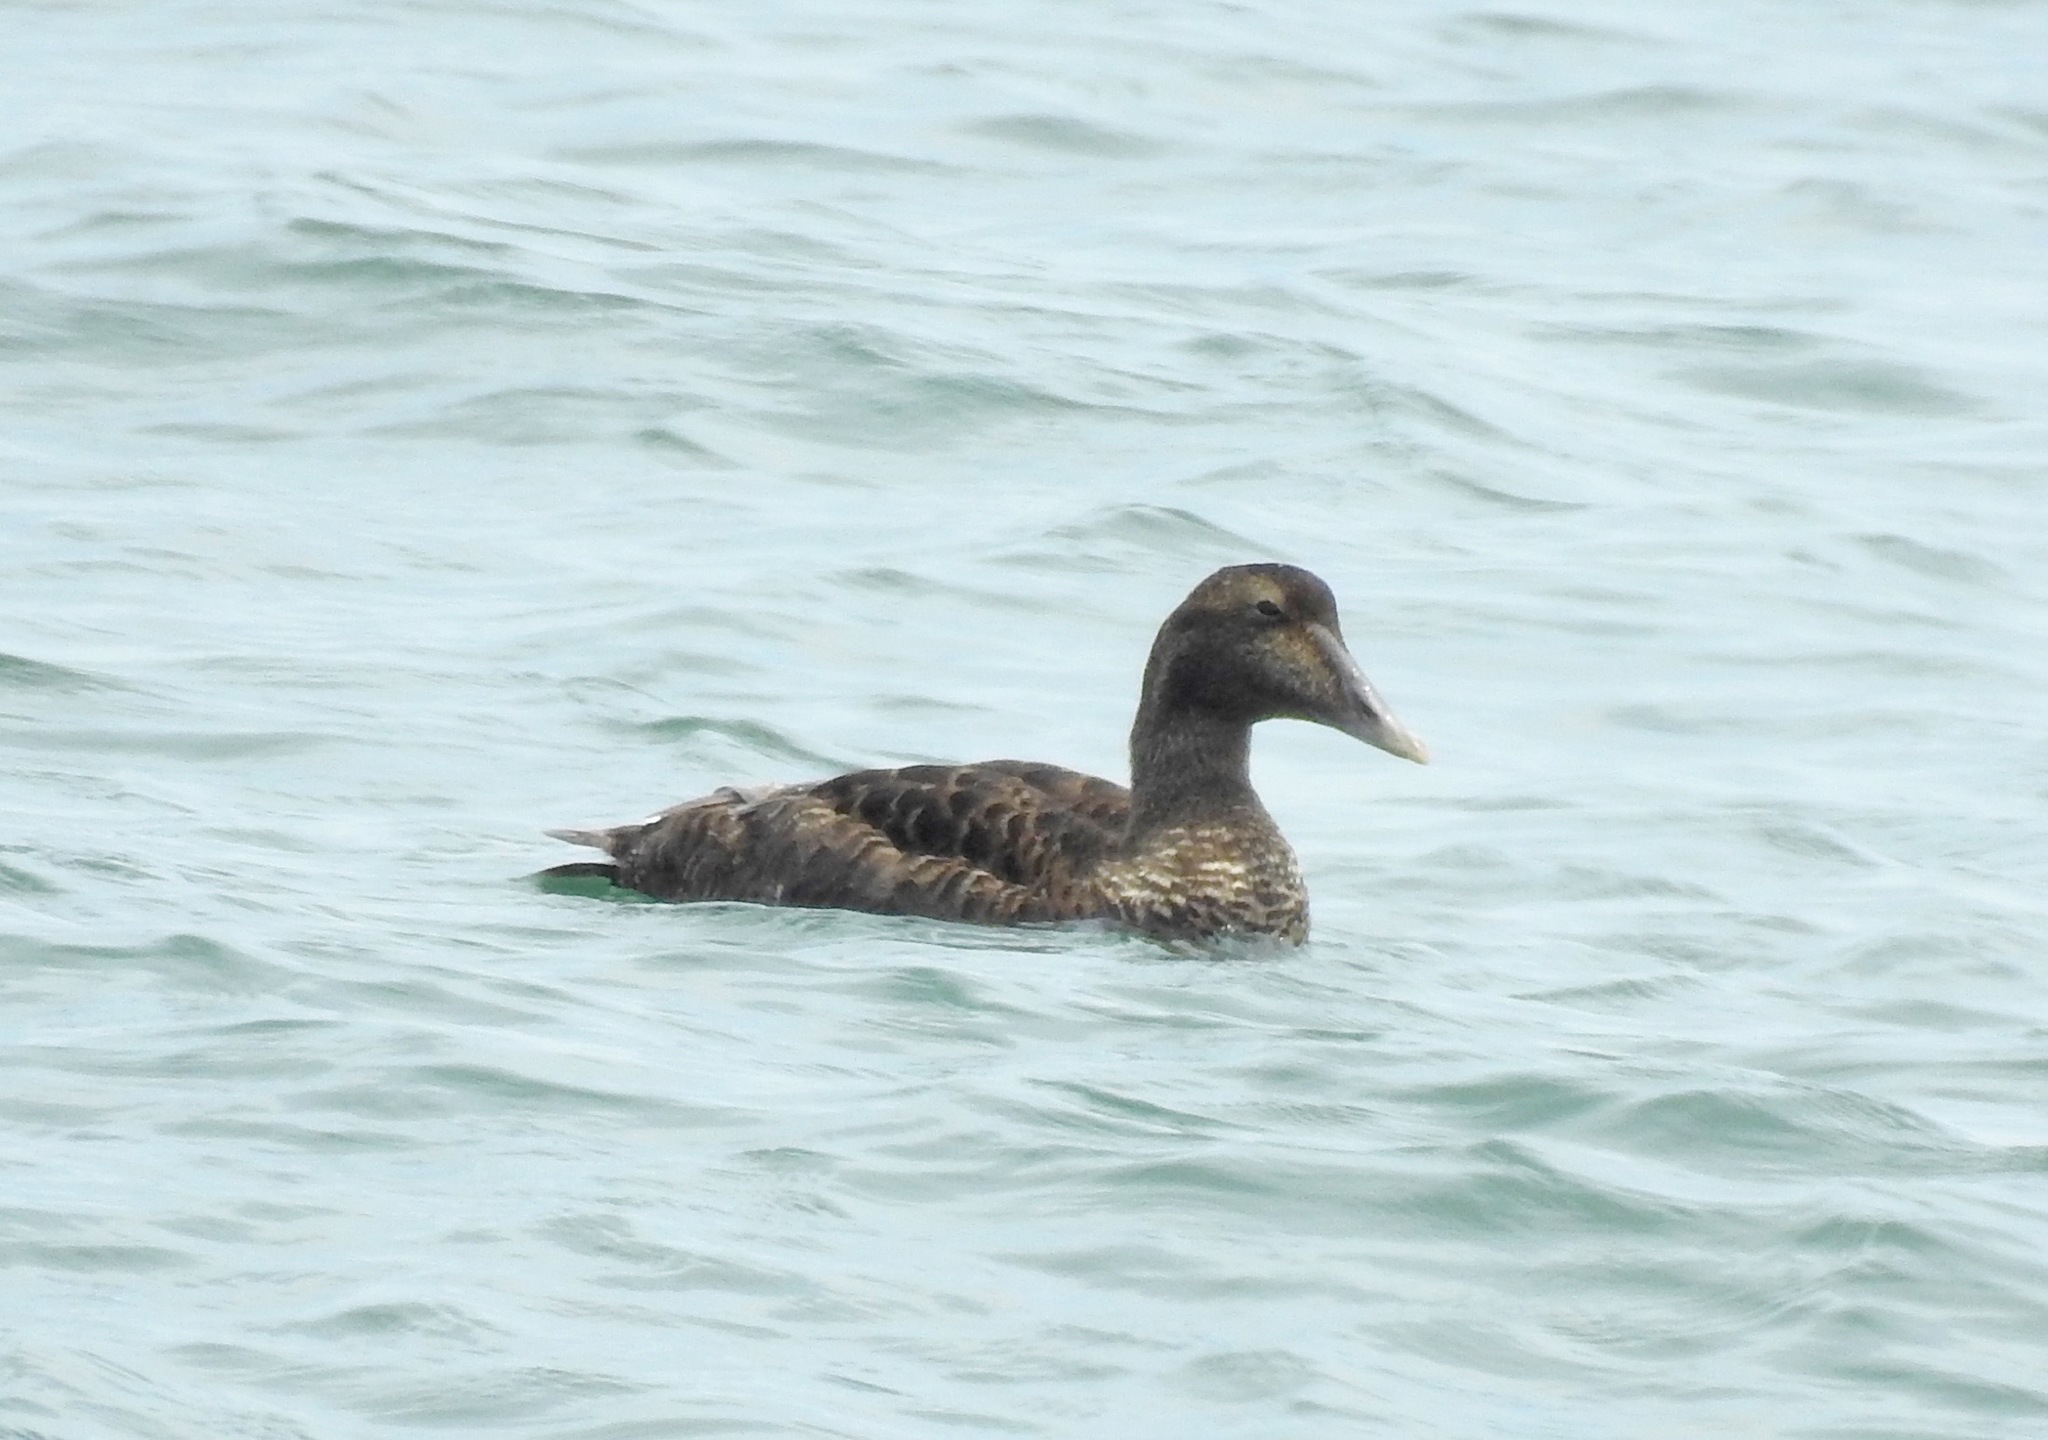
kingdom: Animalia
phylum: Chordata
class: Aves
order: Anseriformes
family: Anatidae
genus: Somateria
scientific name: Somateria mollissima
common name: Common eider
